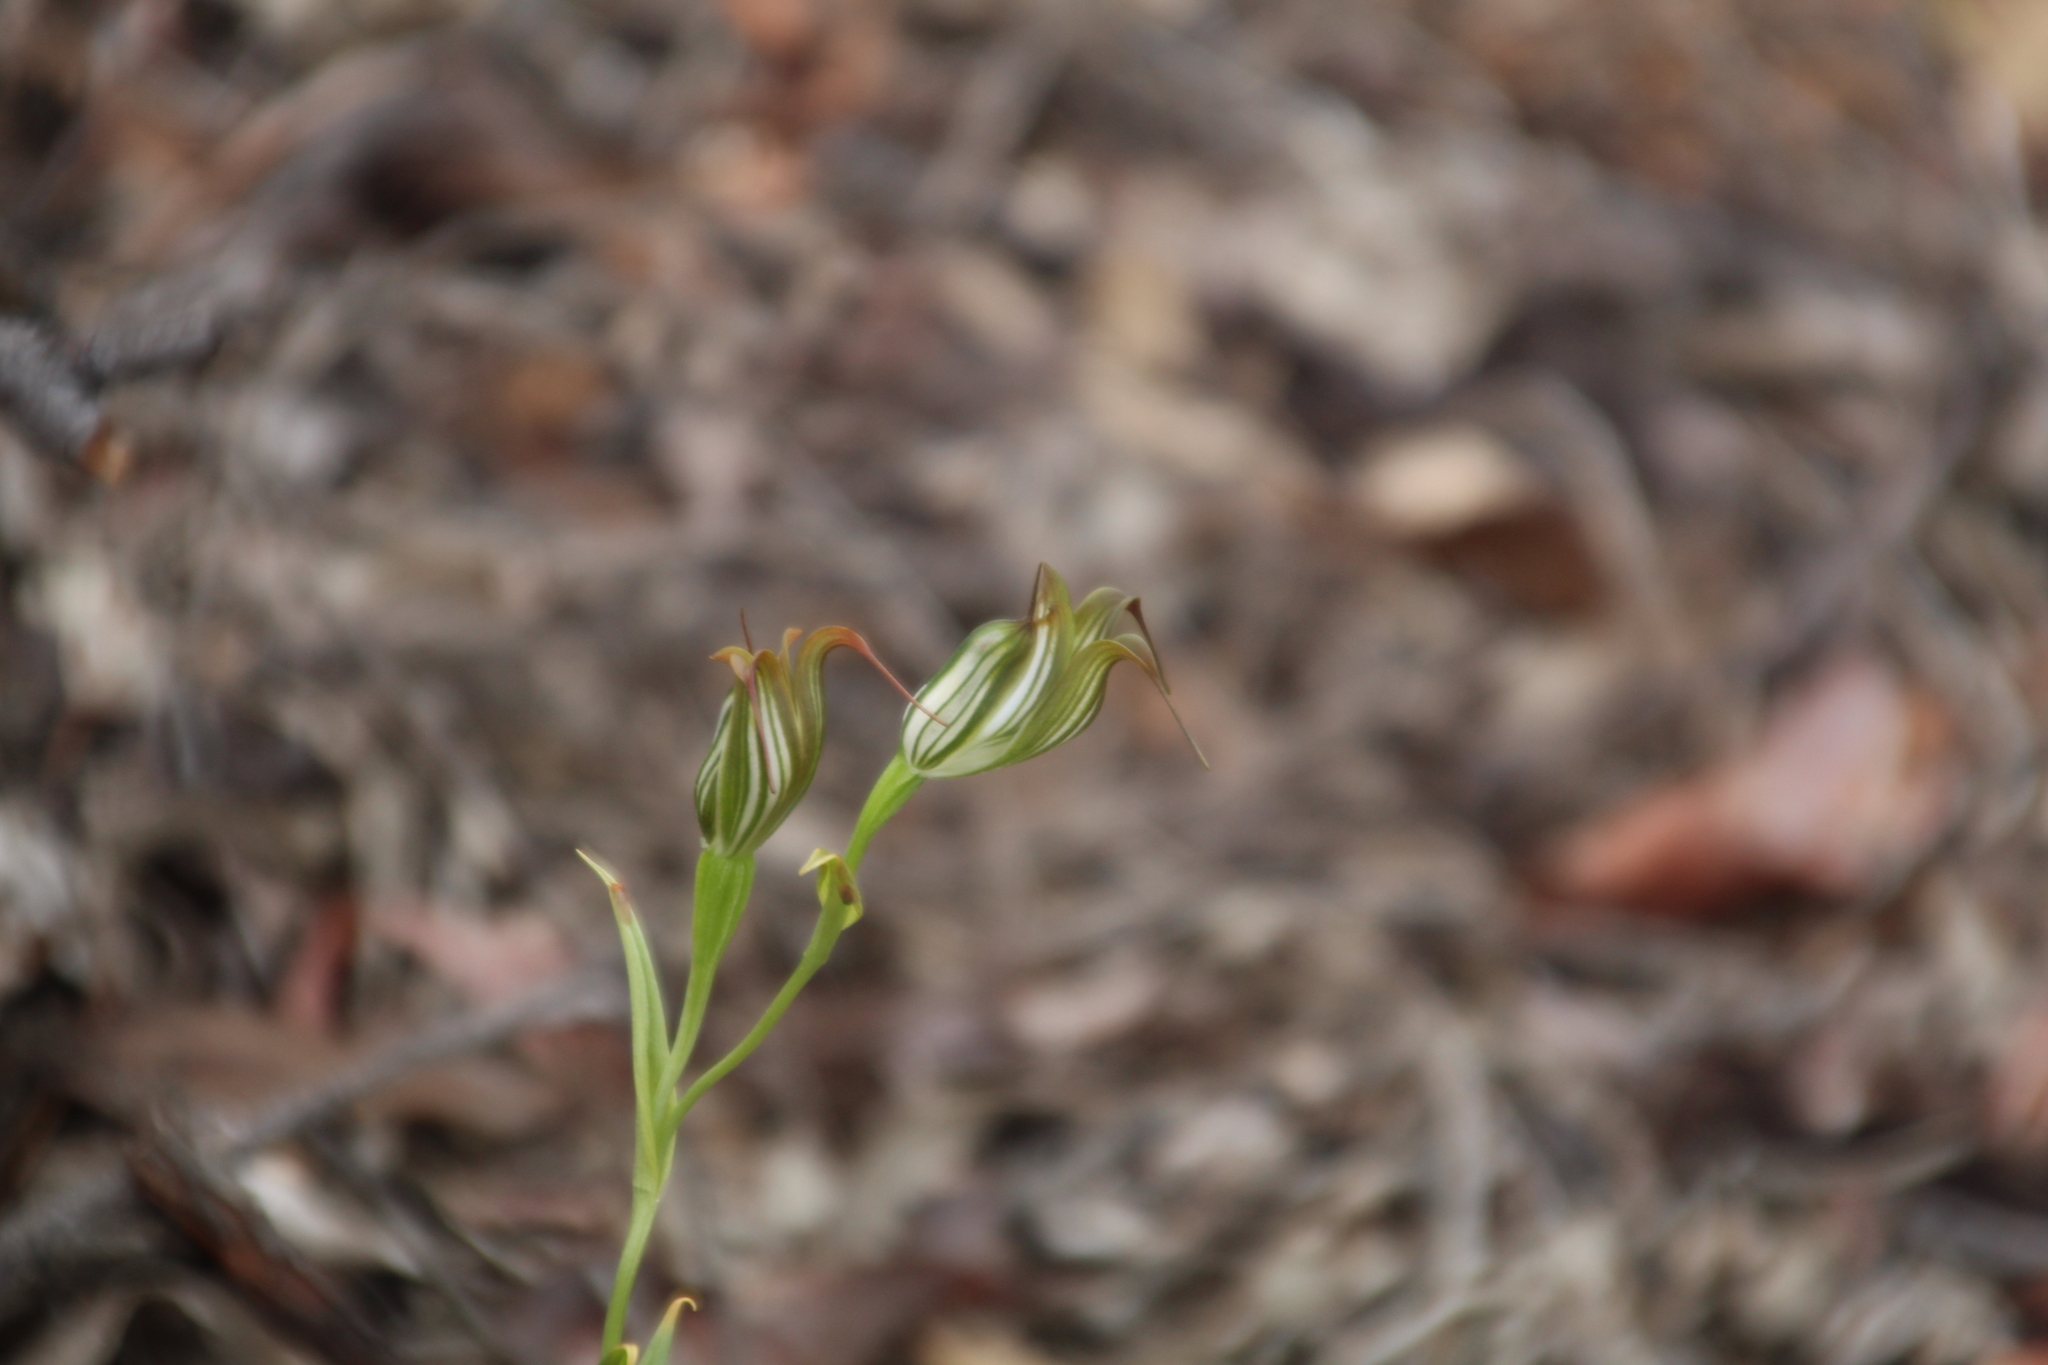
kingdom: Plantae
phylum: Tracheophyta
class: Liliopsida
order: Asparagales
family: Orchidaceae
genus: Pterostylis
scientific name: Pterostylis recurva
